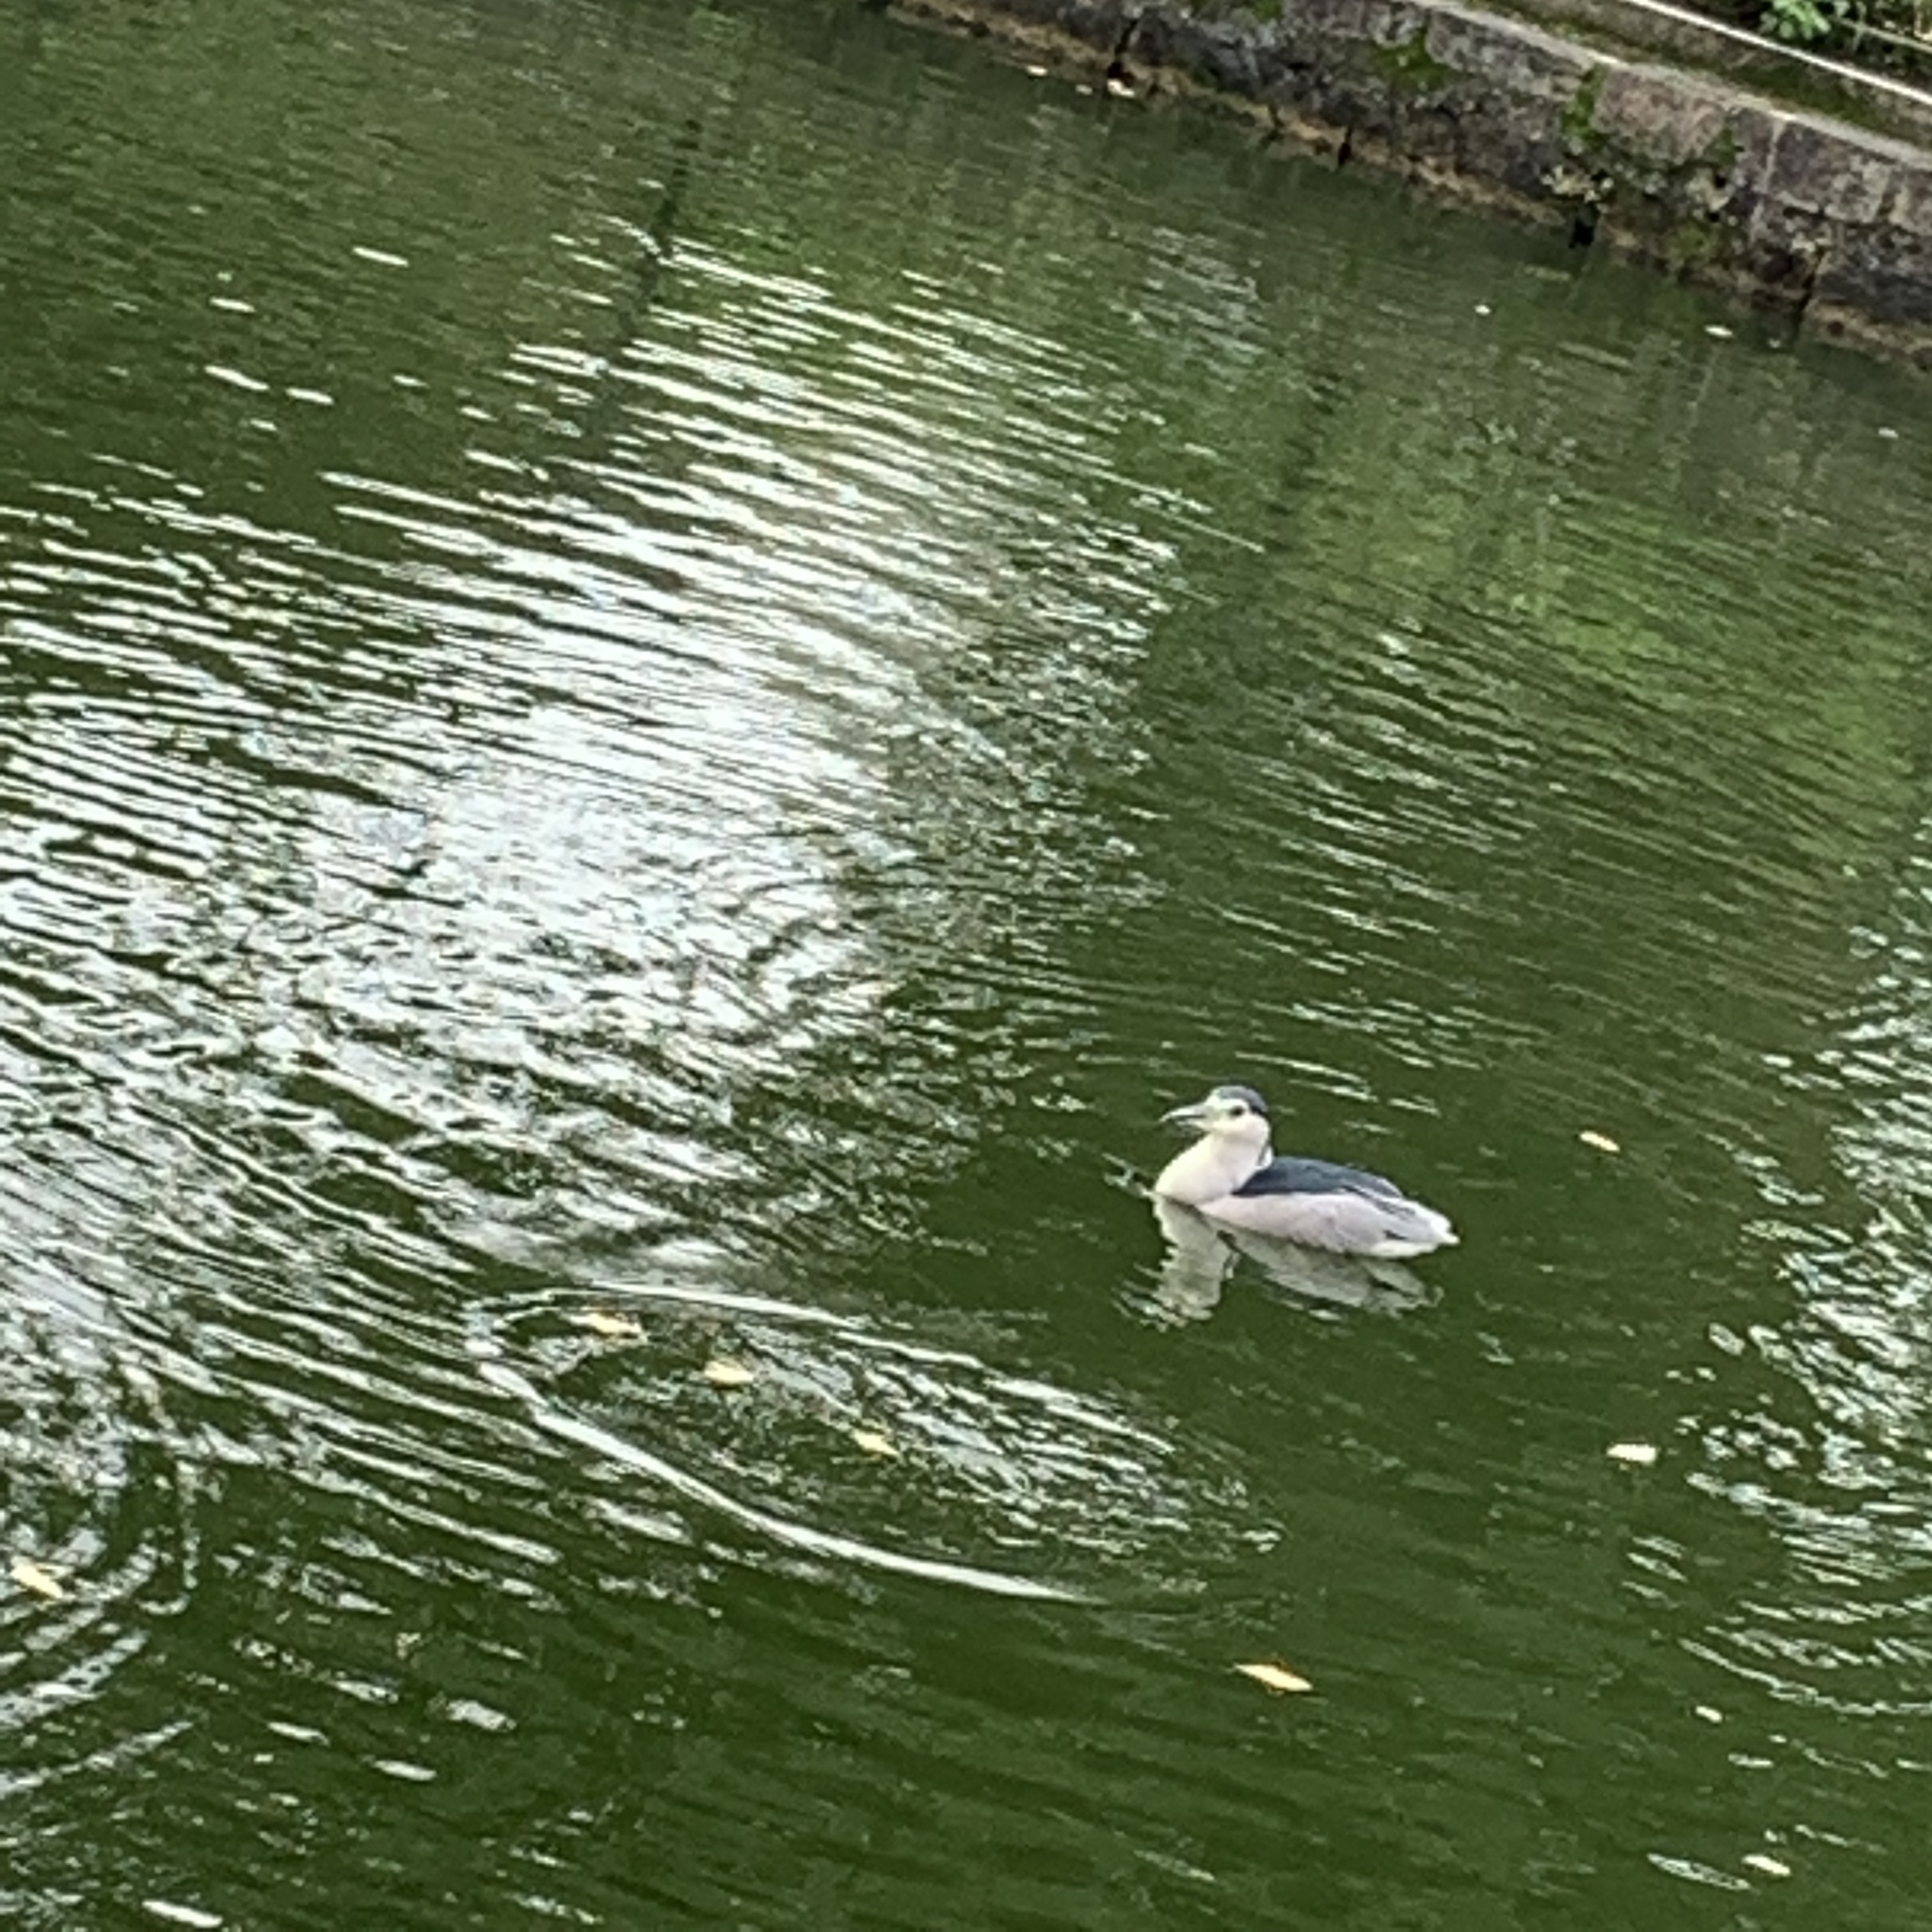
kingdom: Animalia
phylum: Chordata
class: Aves
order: Pelecaniformes
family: Ardeidae
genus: Nycticorax
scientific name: Nycticorax nycticorax
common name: Black-crowned night heron
